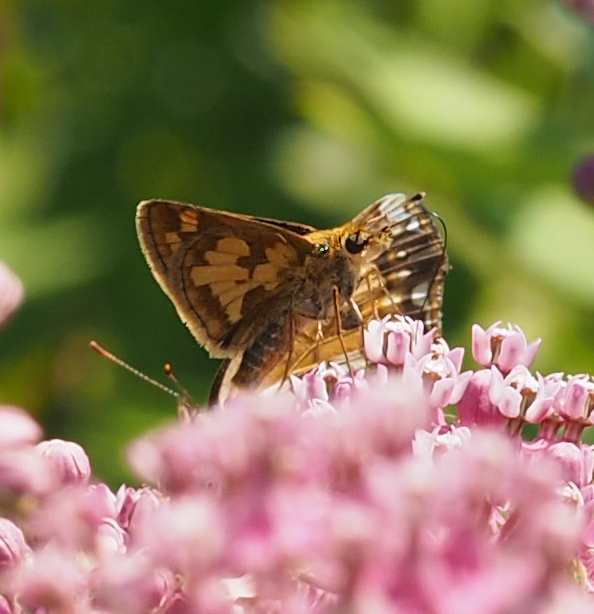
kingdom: Animalia
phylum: Arthropoda
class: Insecta
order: Lepidoptera
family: Hesperiidae
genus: Polites
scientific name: Polites coras
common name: Peck's skipper
